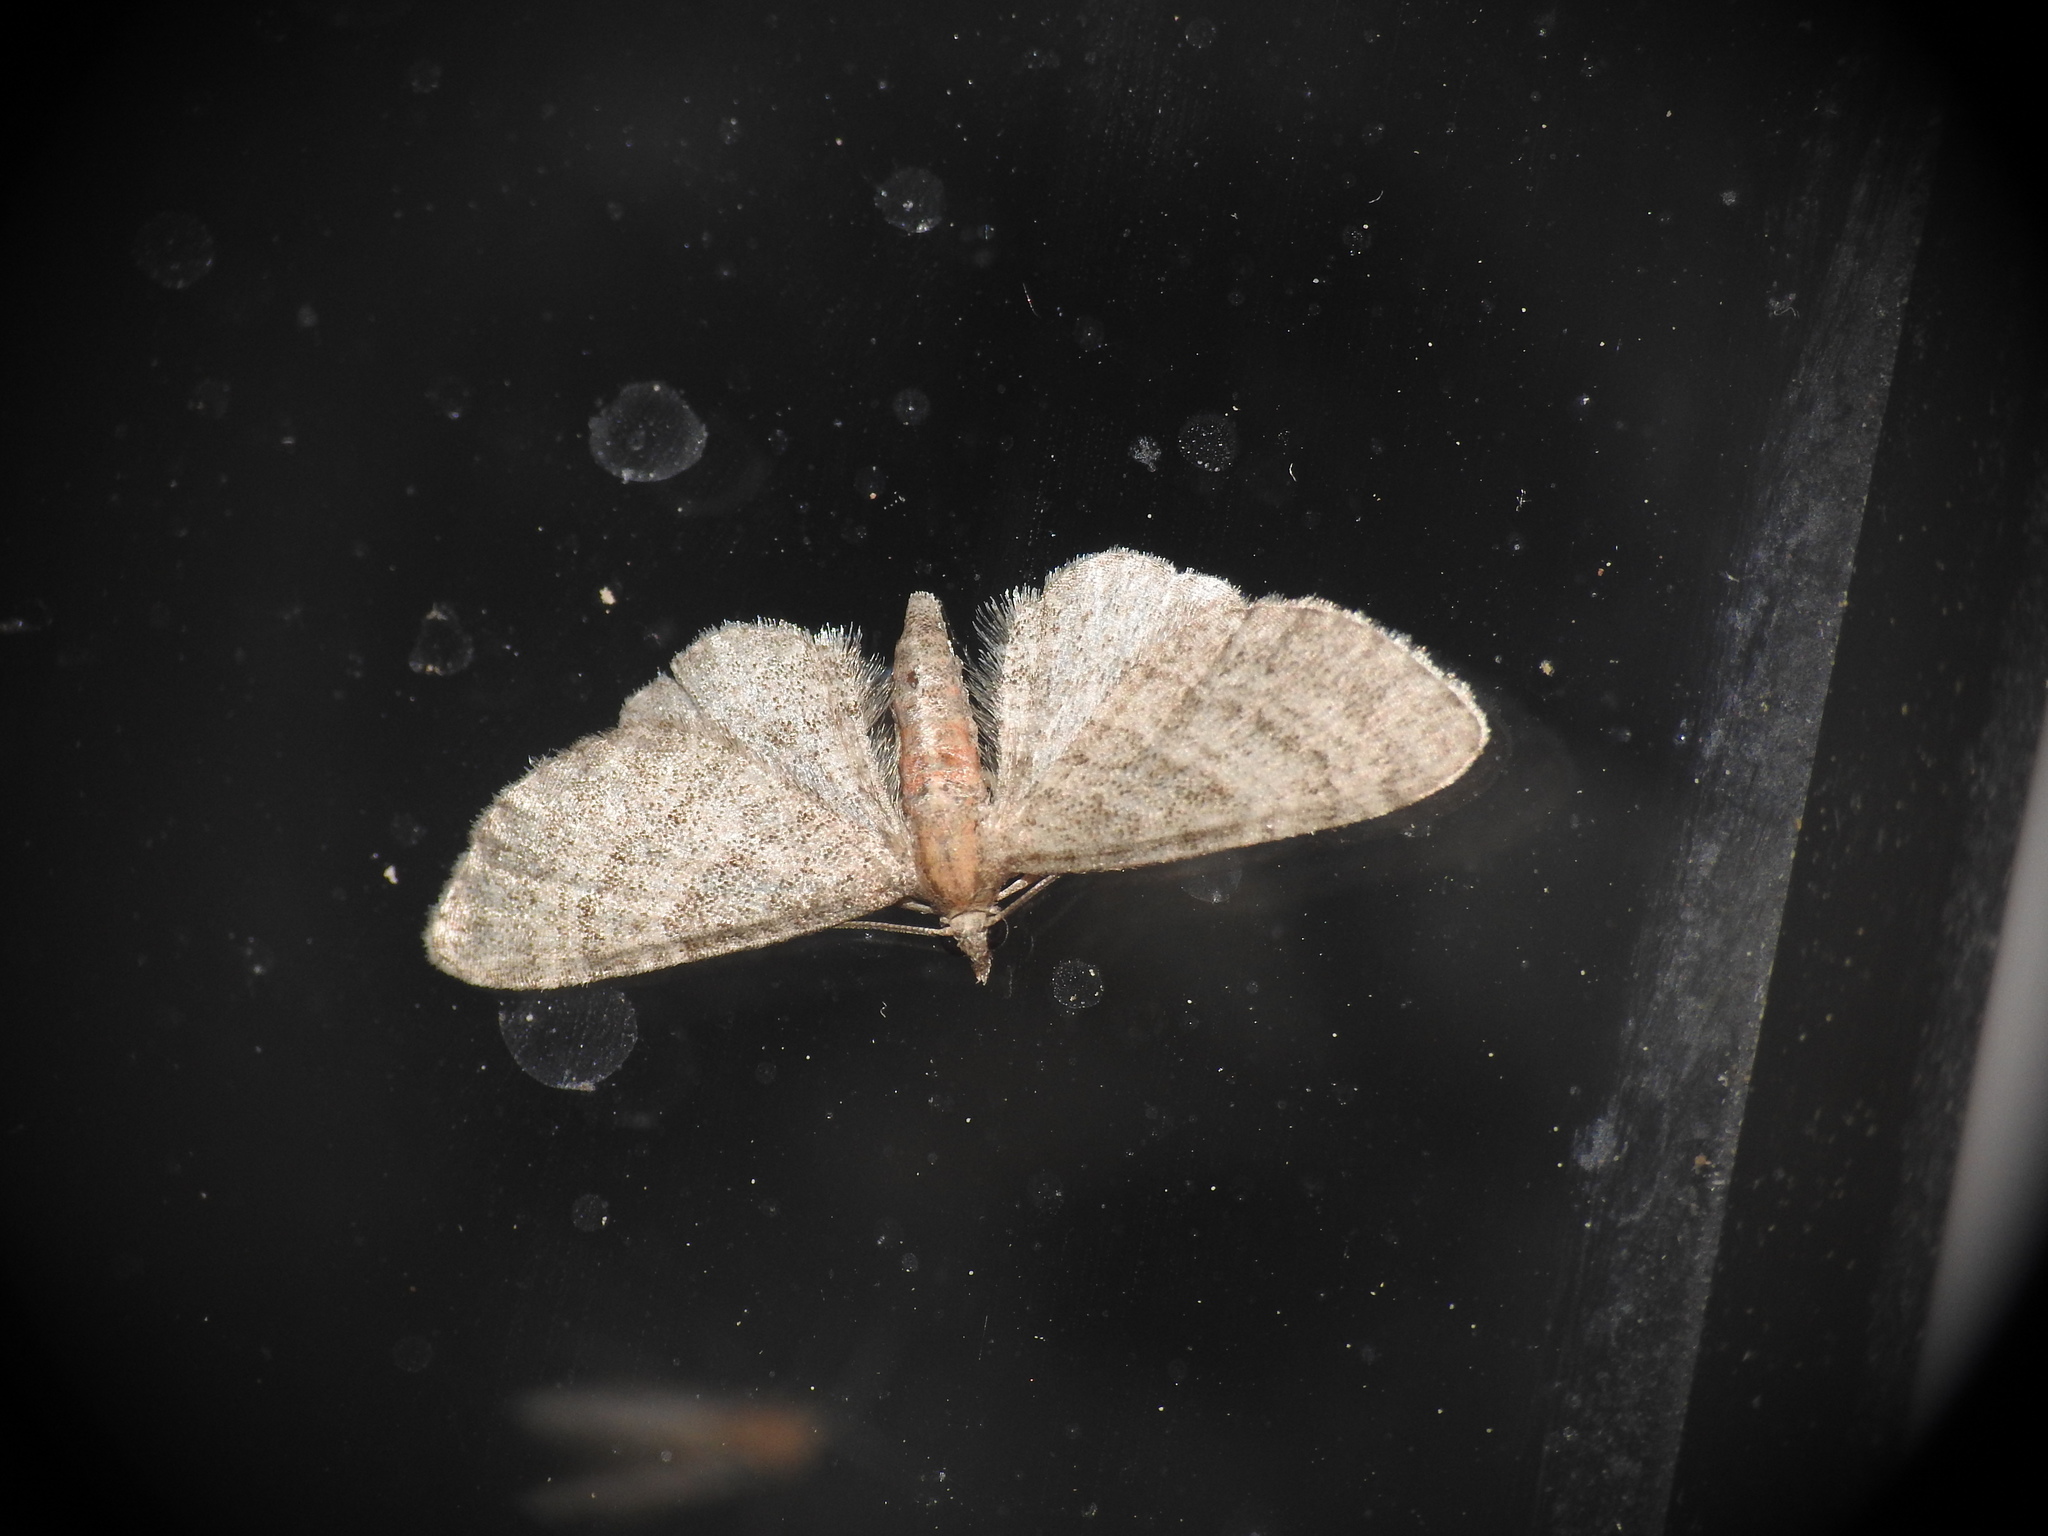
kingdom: Animalia
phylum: Arthropoda
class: Insecta
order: Lepidoptera
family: Geometridae
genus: Eupithecia
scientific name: Eupithecia haworthiata
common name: Haworth's pug
